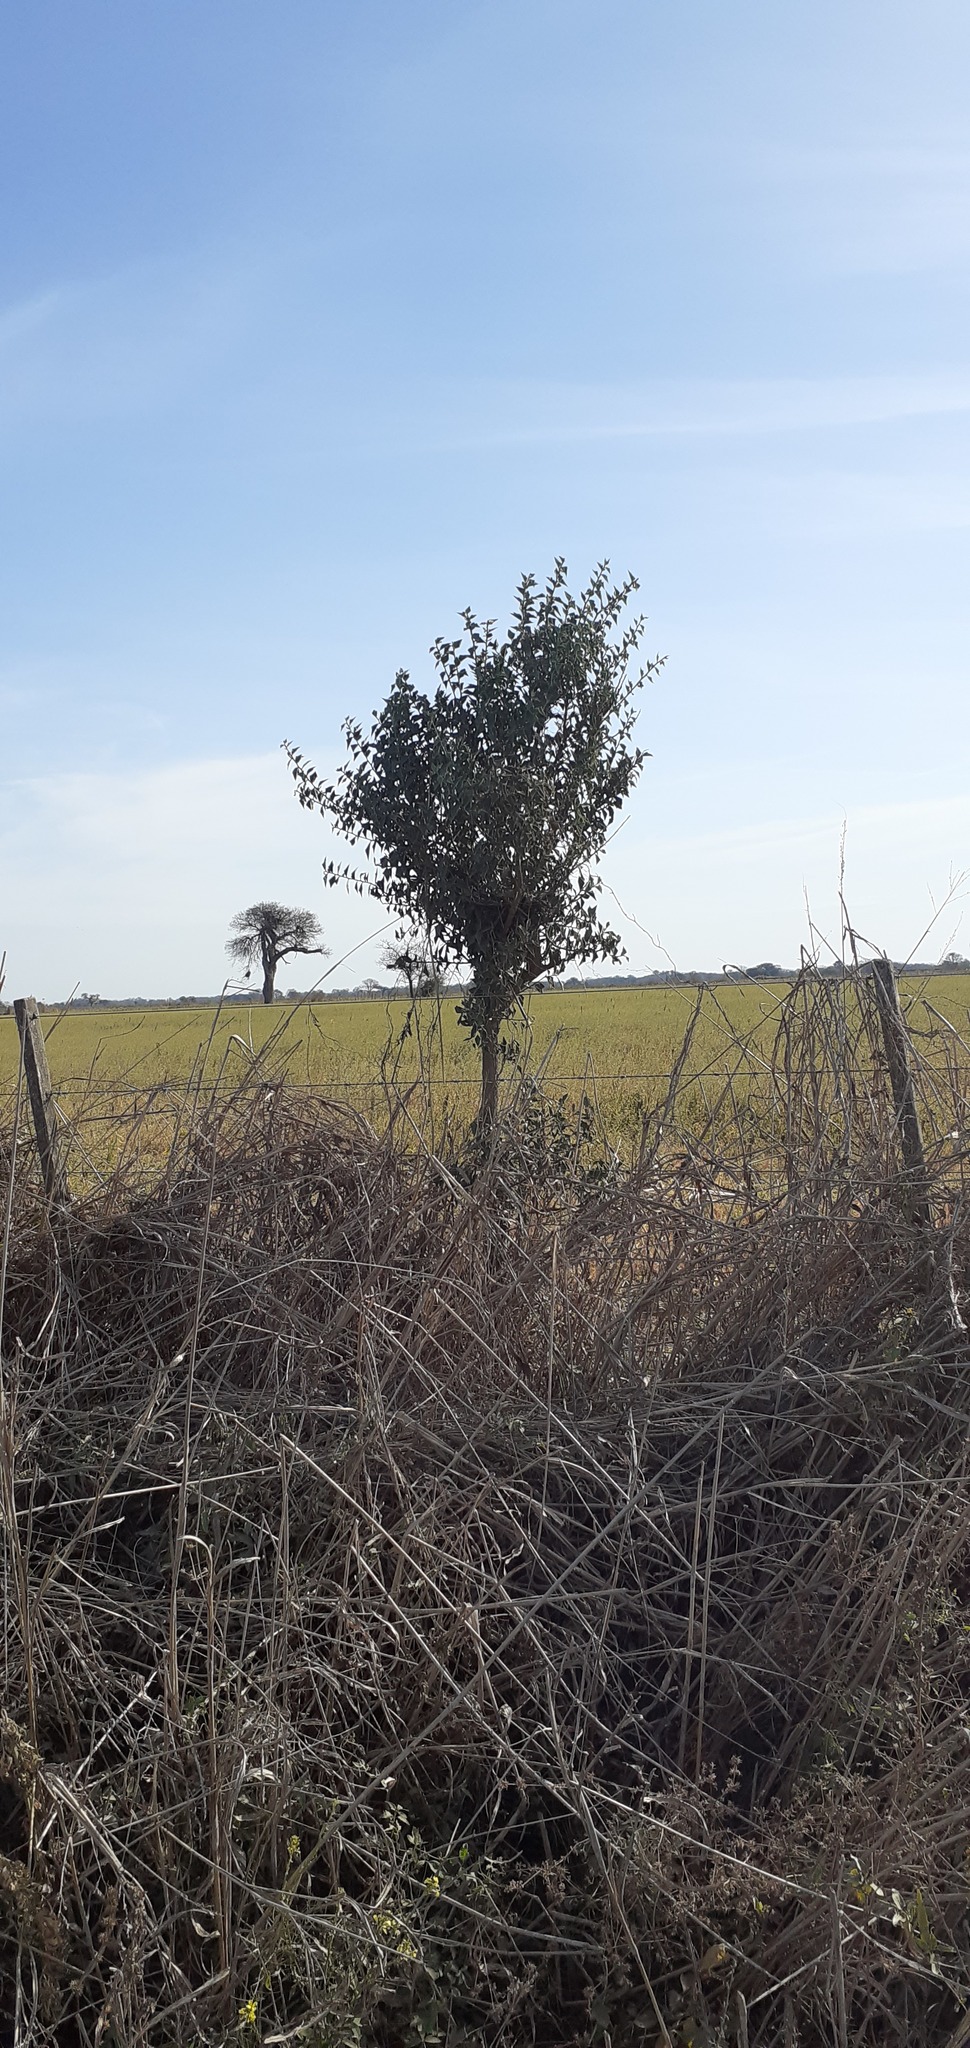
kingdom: Plantae
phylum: Tracheophyta
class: Magnoliopsida
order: Santalales
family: Cervantesiaceae
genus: Jodina
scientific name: Jodina rhombifolia
